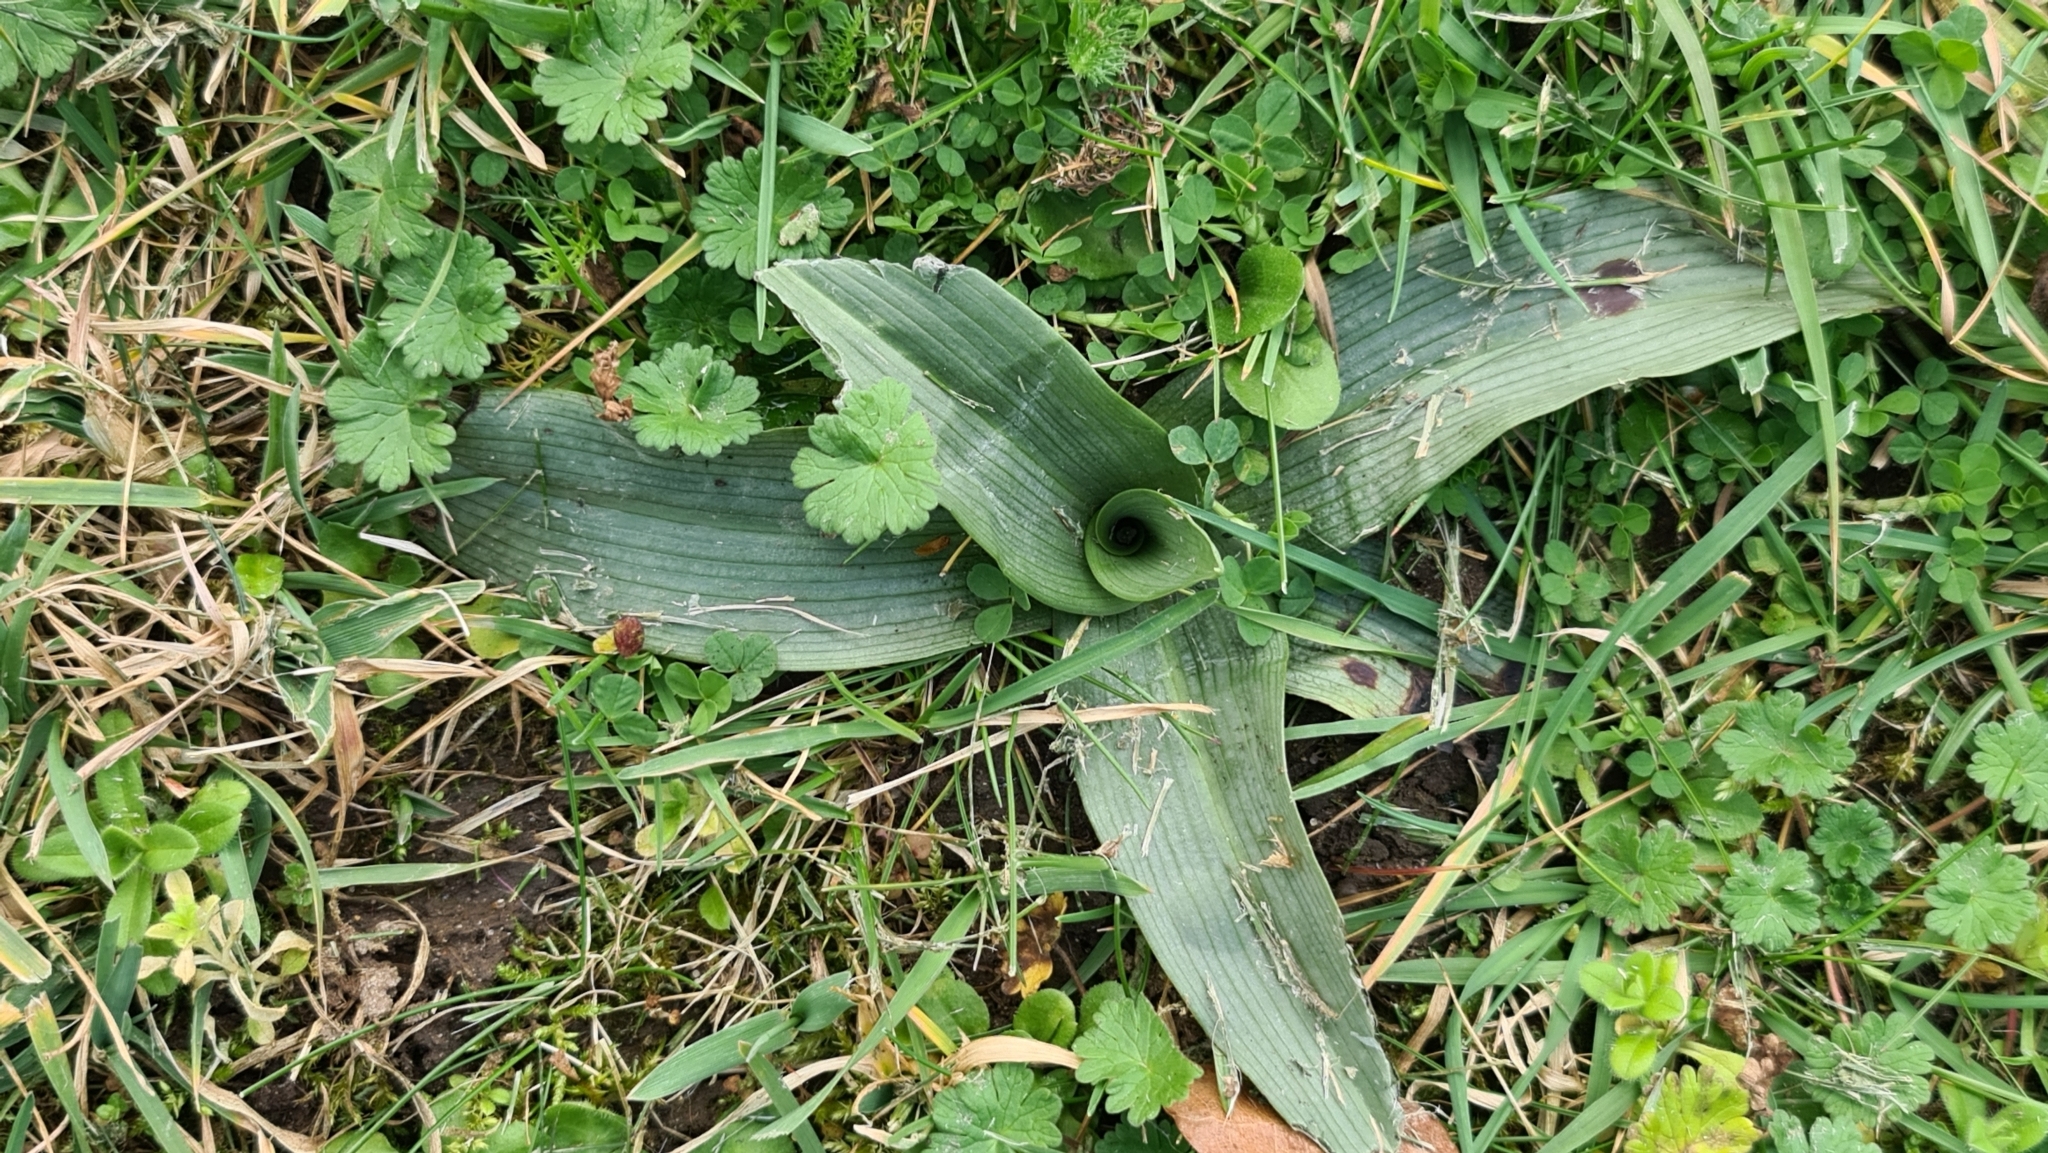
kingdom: Plantae
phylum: Tracheophyta
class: Liliopsida
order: Asparagales
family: Orchidaceae
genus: Ophrys
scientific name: Ophrys apifera
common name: Bee orchid
